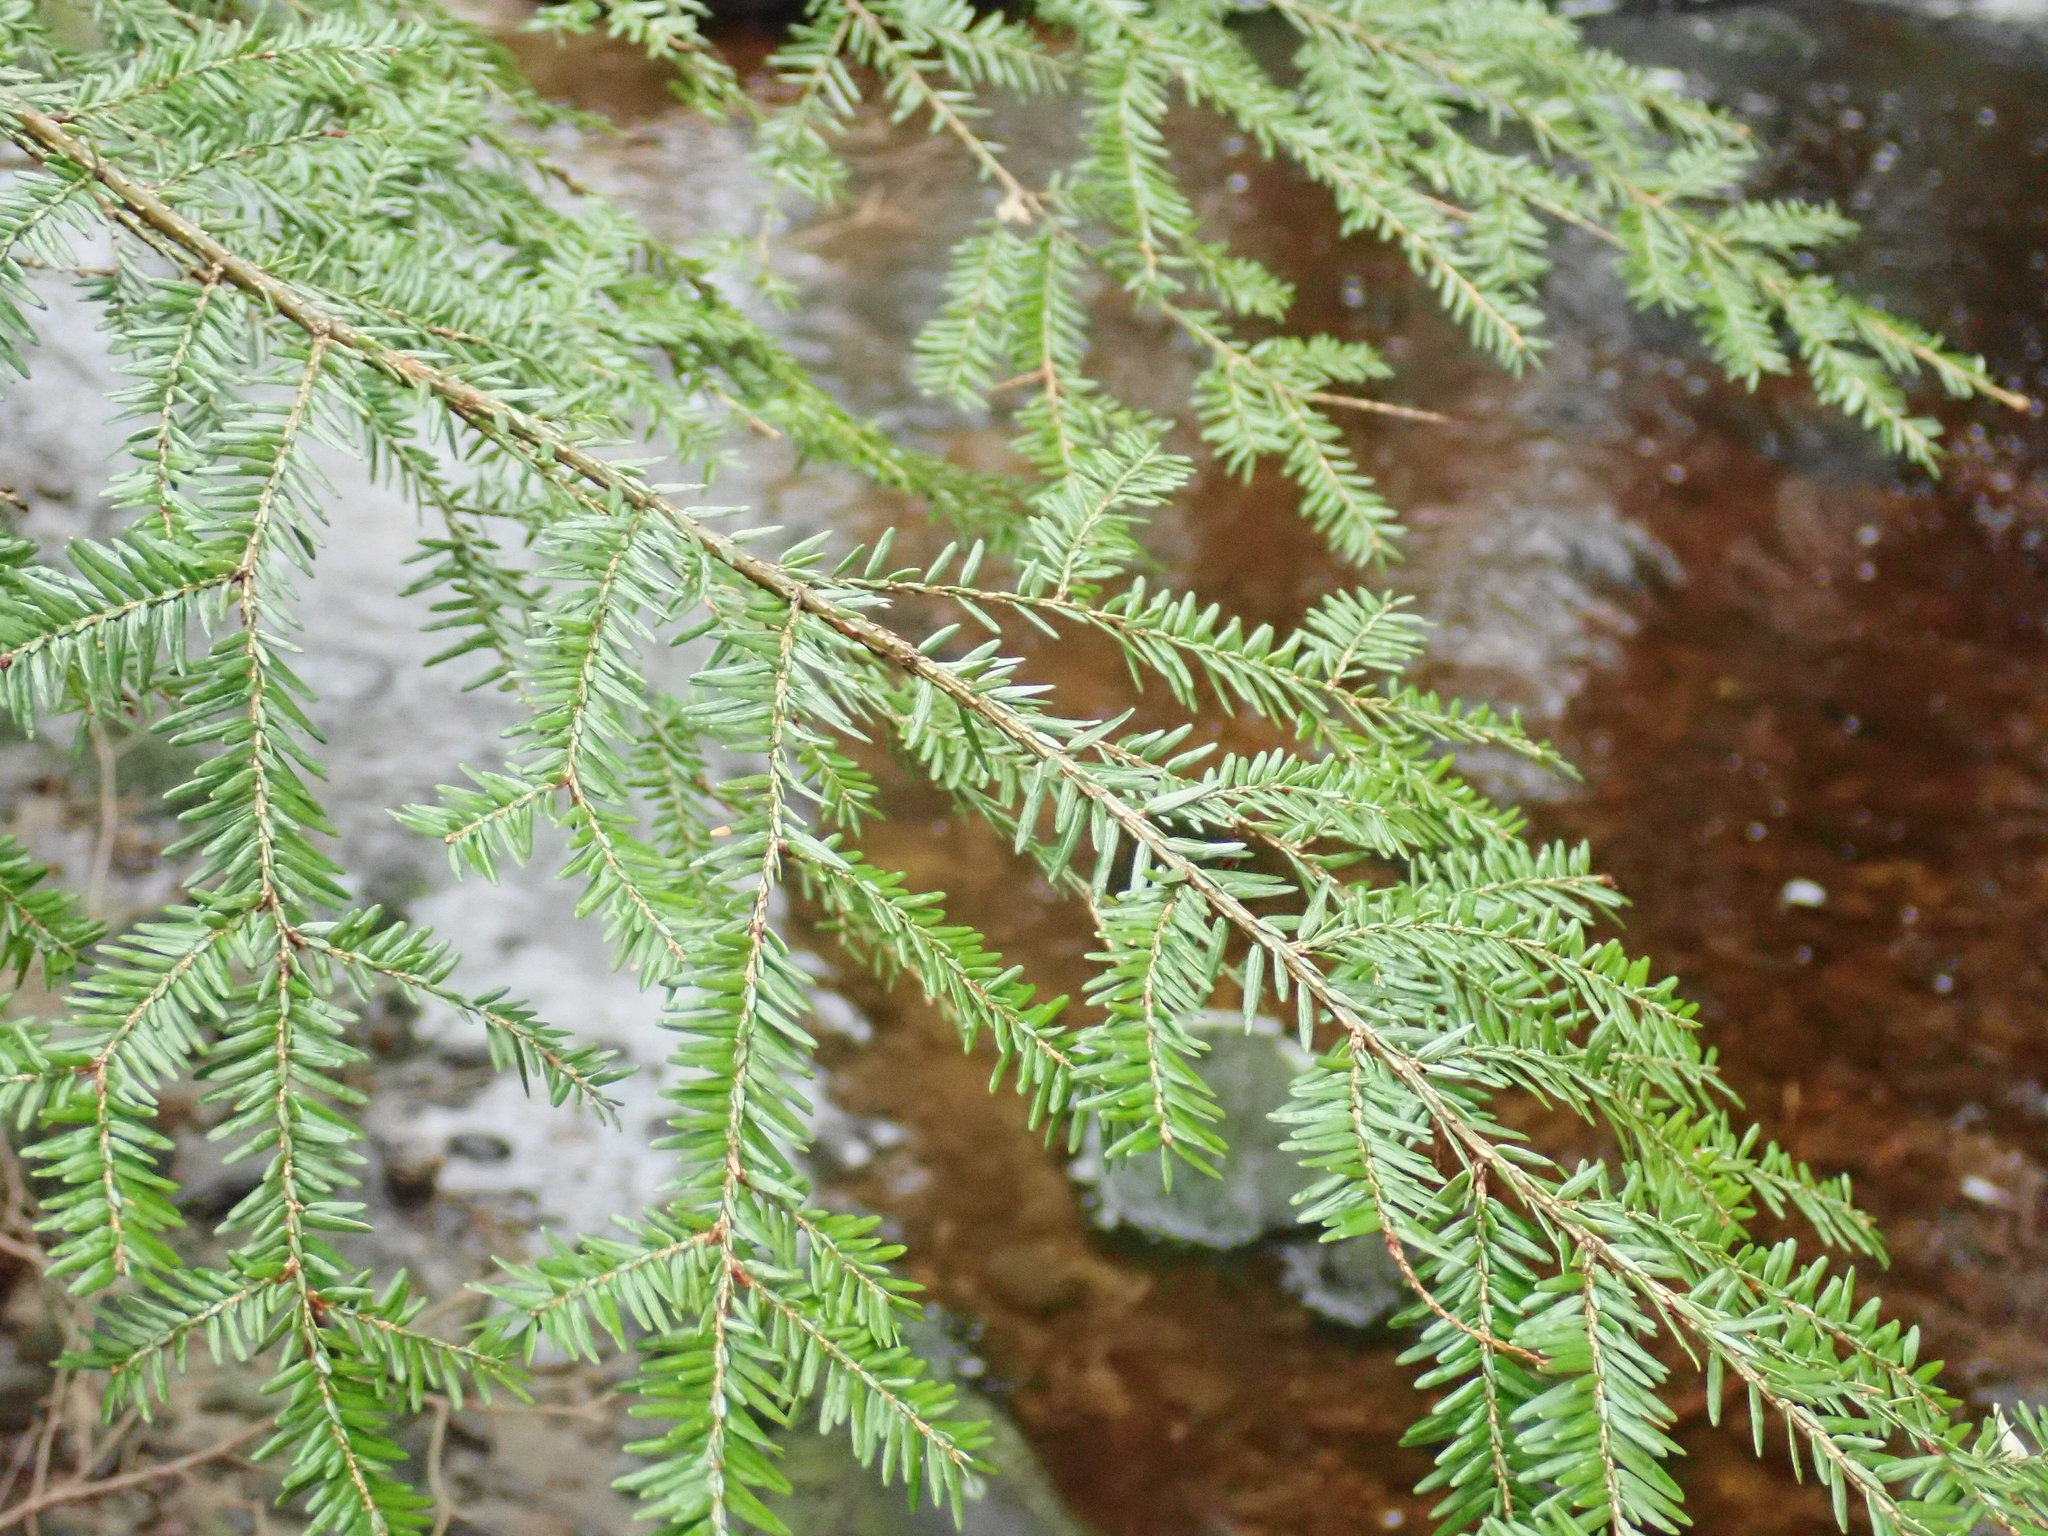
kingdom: Plantae
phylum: Tracheophyta
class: Pinopsida
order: Pinales
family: Pinaceae
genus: Tsuga
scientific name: Tsuga canadensis
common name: Eastern hemlock
